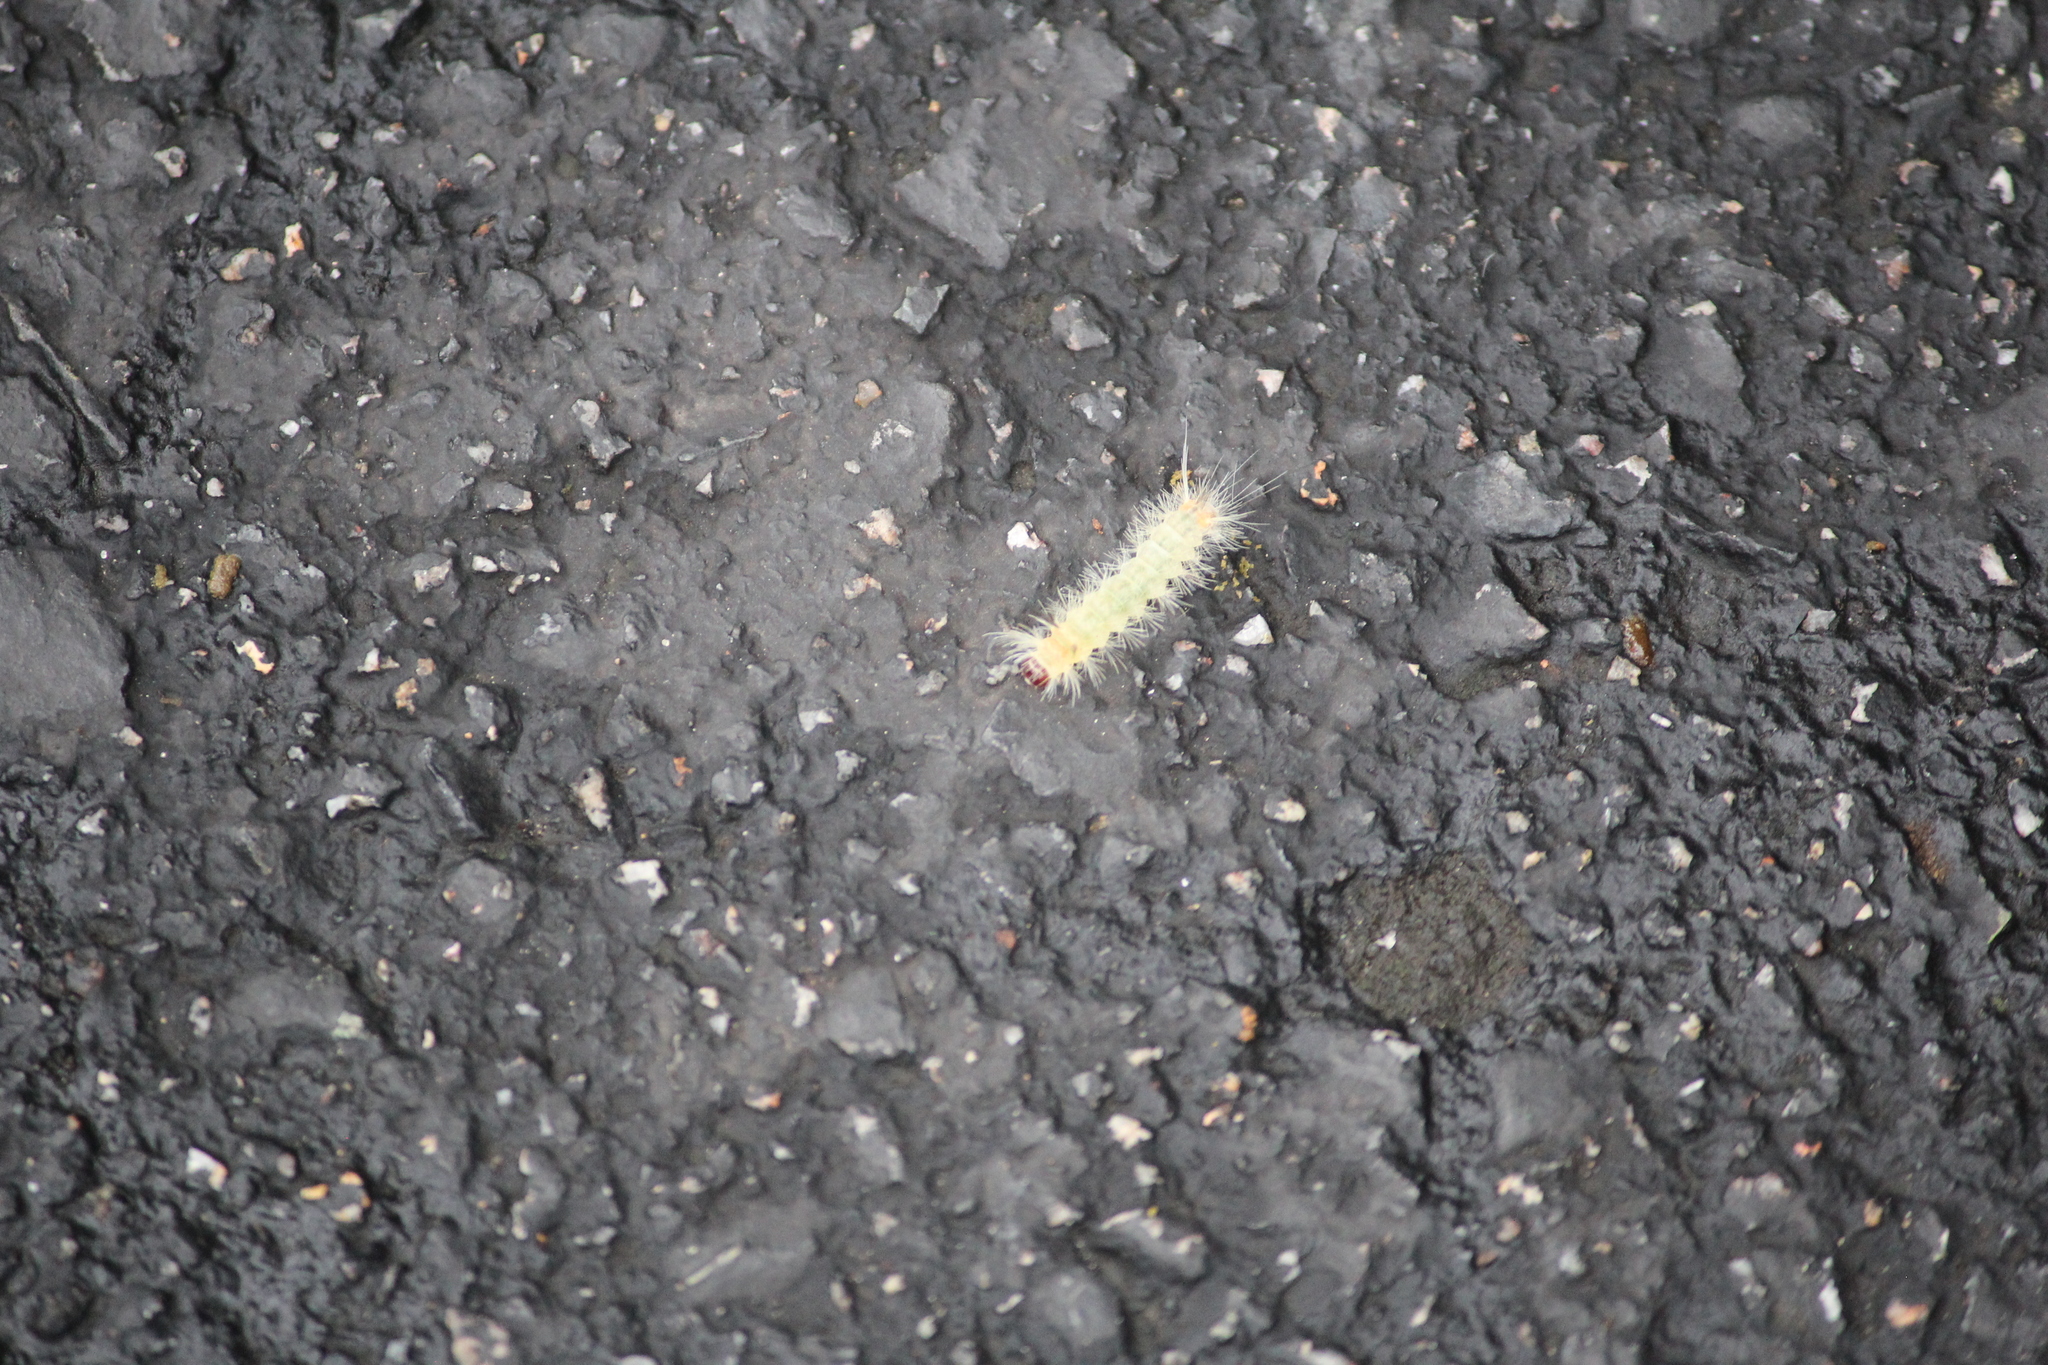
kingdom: Animalia
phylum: Arthropoda
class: Insecta
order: Lepidoptera
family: Erebidae
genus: Halysidota
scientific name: Halysidota tessellaris
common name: Banded tussock moth
